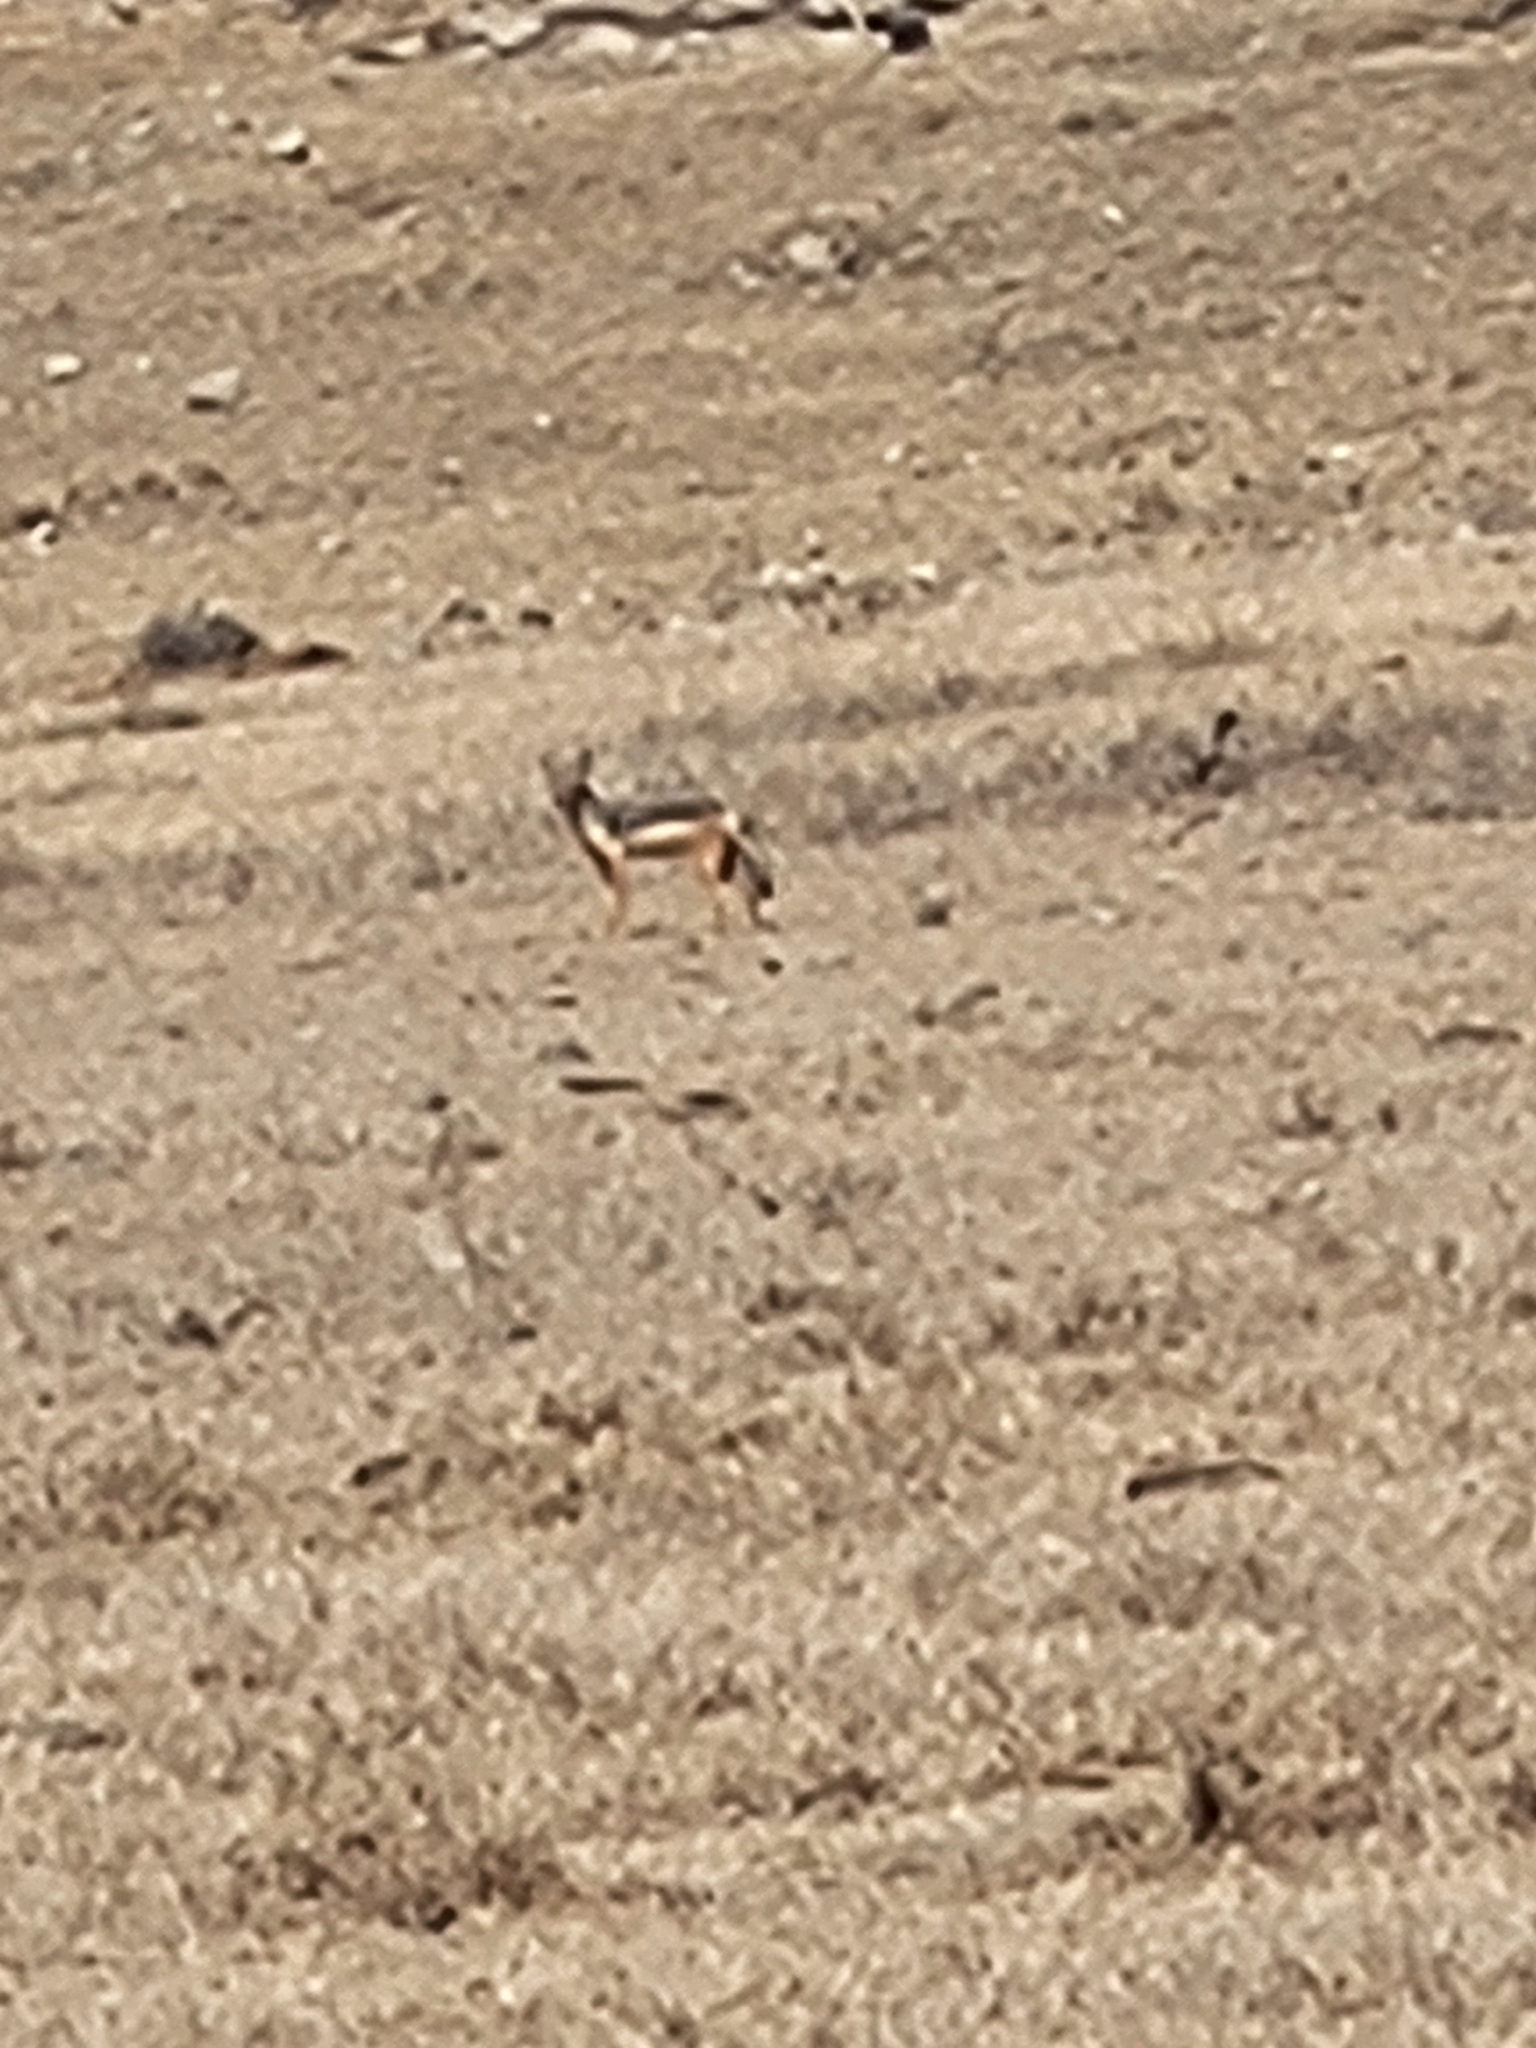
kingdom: Animalia
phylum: Chordata
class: Mammalia
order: Carnivora
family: Canidae
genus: Lupulella
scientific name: Lupulella
